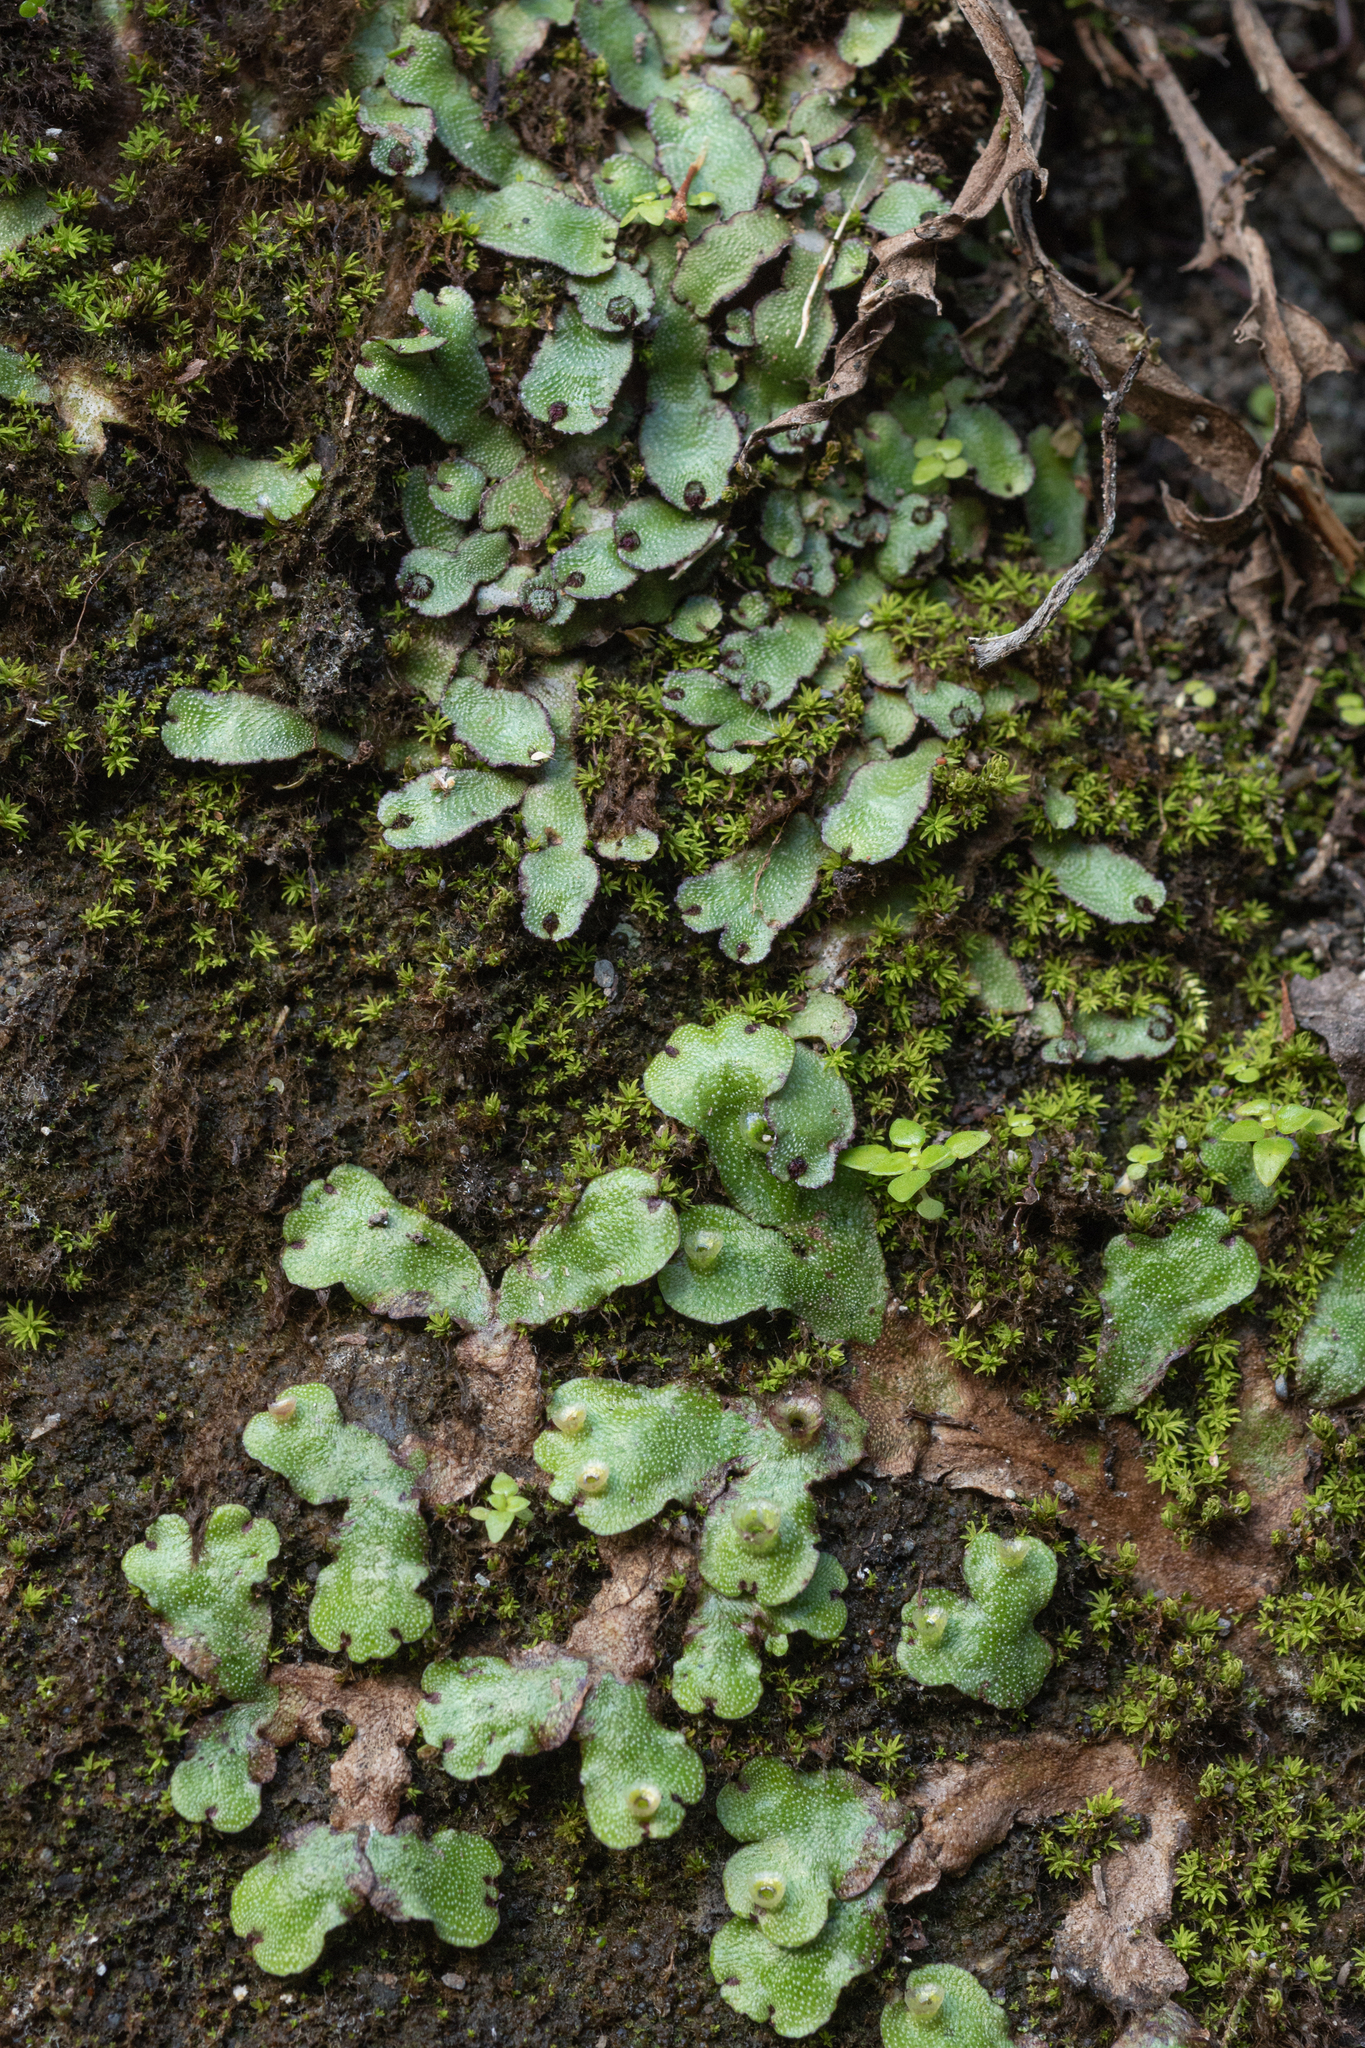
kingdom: Plantae
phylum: Marchantiophyta
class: Marchantiopsida
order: Marchantiales
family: Marchantiaceae
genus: Marchantia
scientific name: Marchantia paleacea
